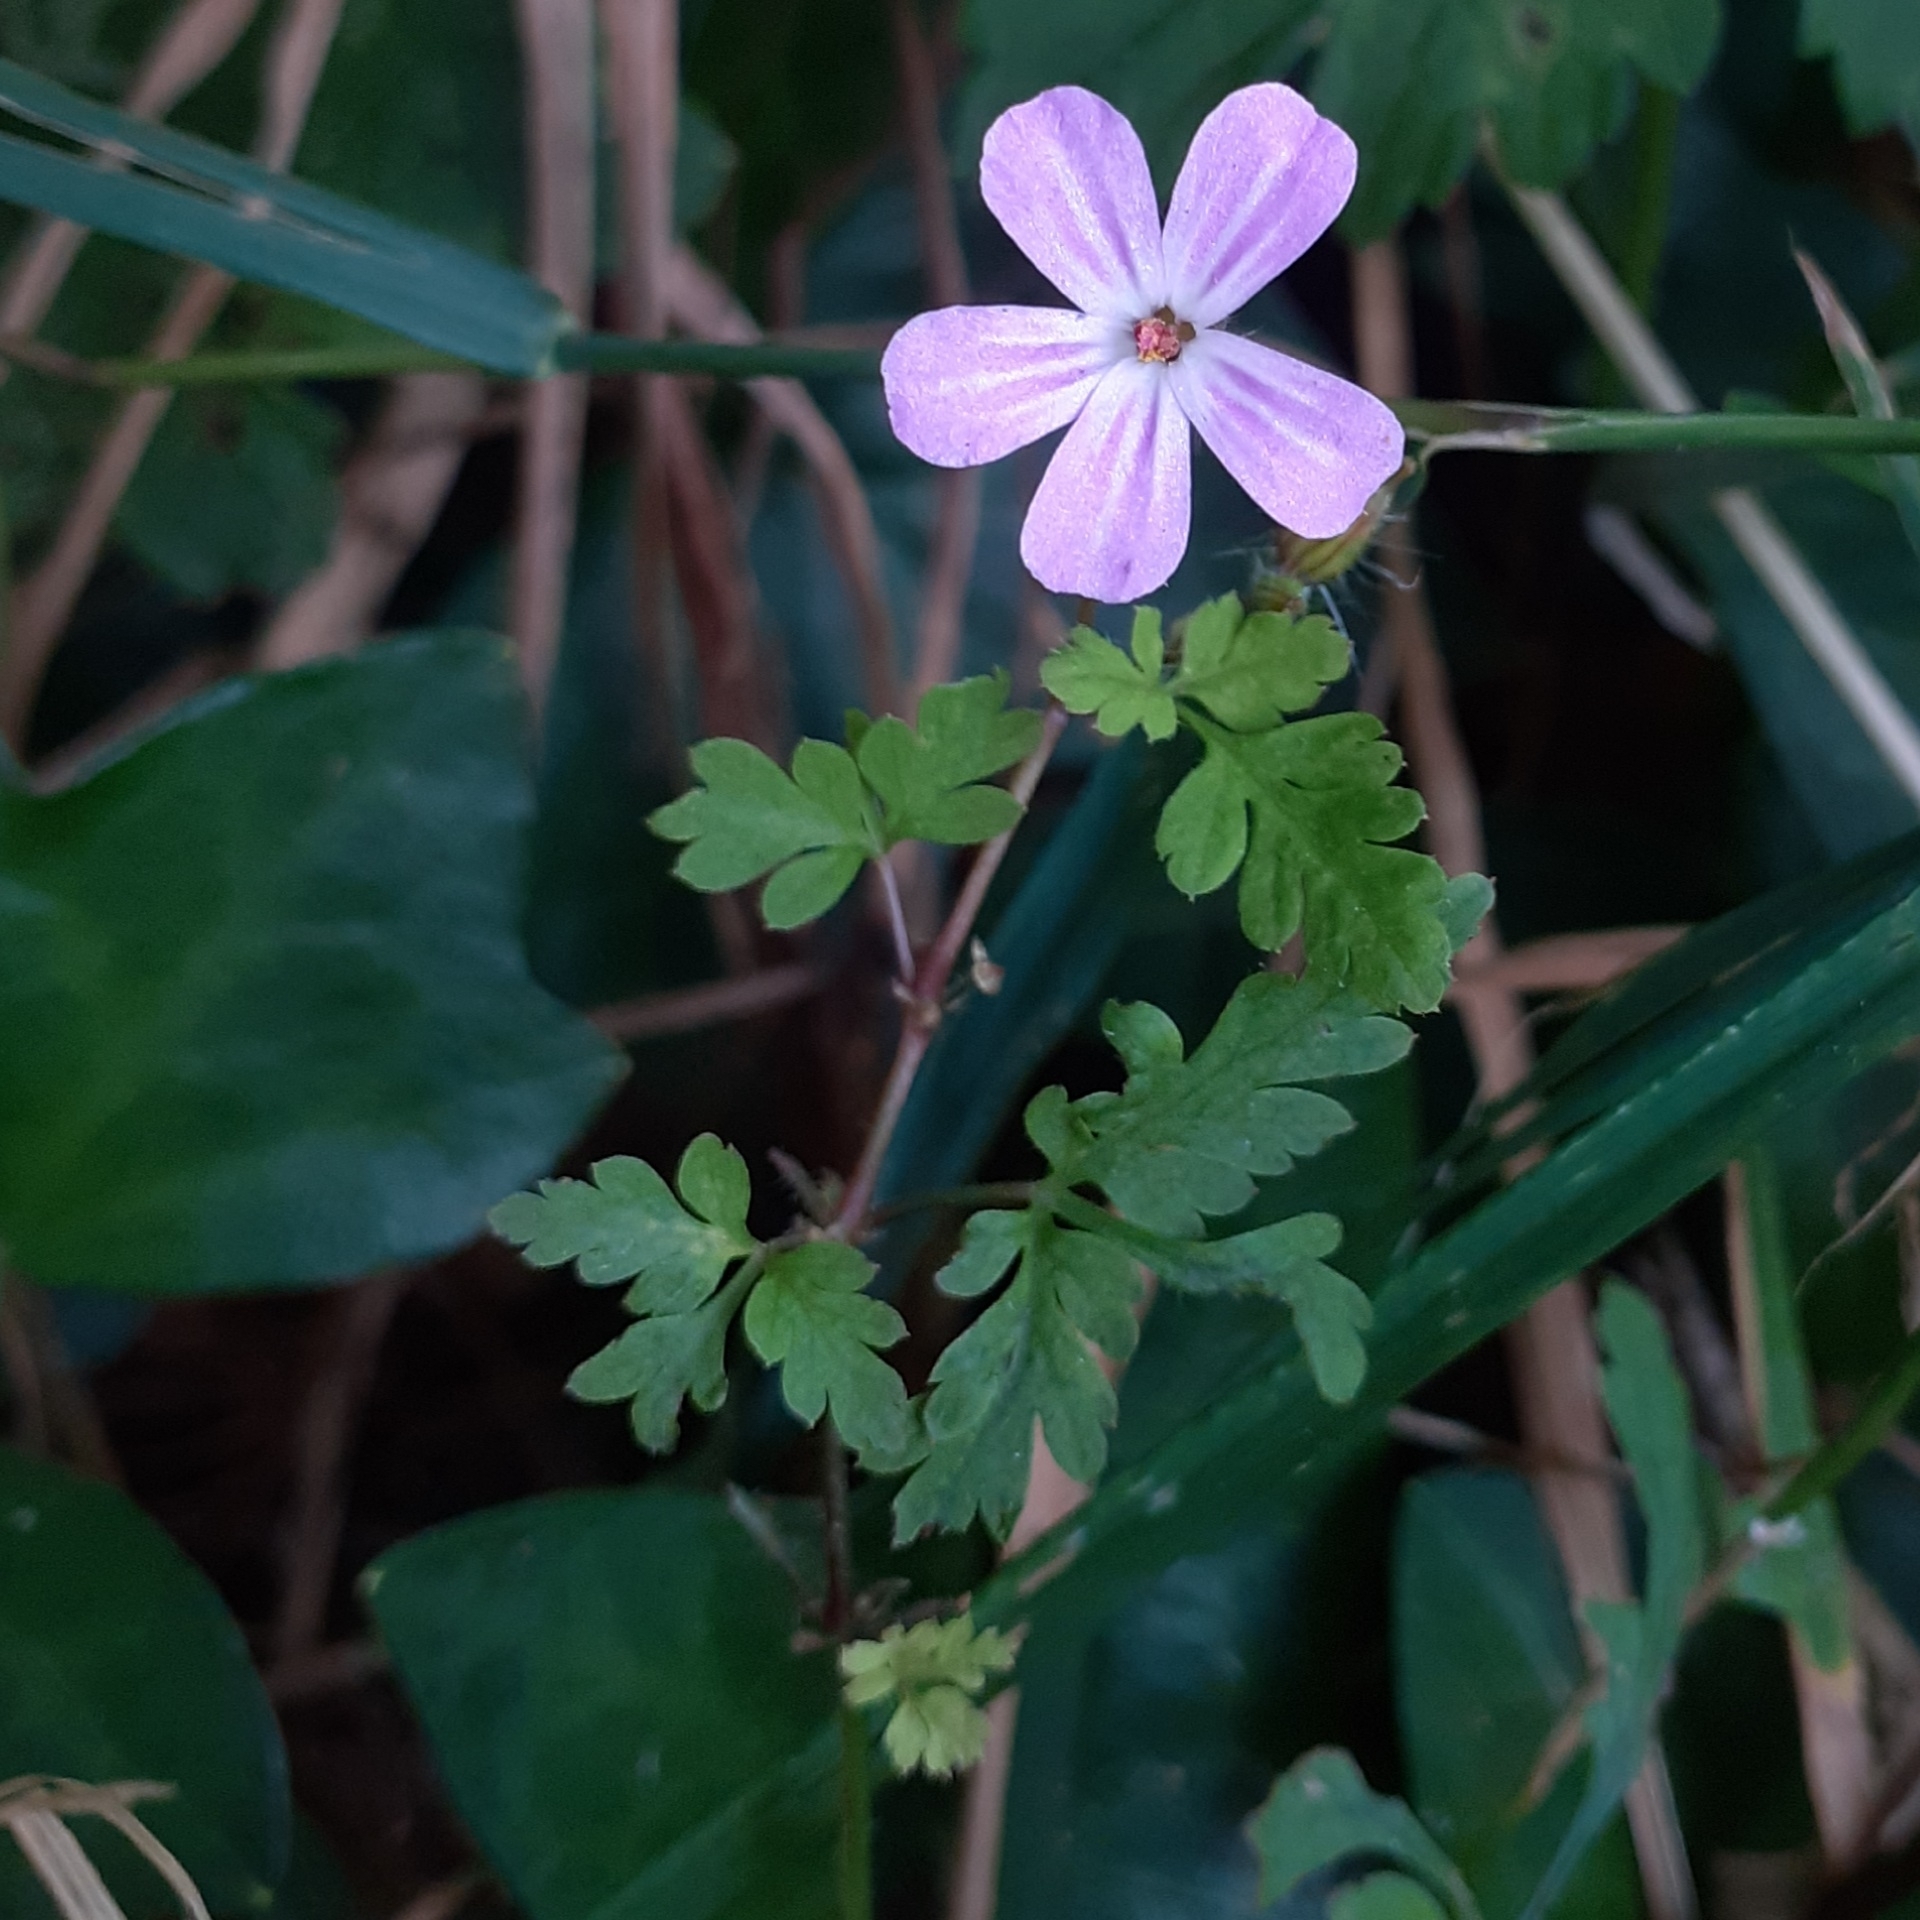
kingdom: Plantae
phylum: Tracheophyta
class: Magnoliopsida
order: Geraniales
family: Geraniaceae
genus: Geranium
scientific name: Geranium robertianum
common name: Herb-robert
